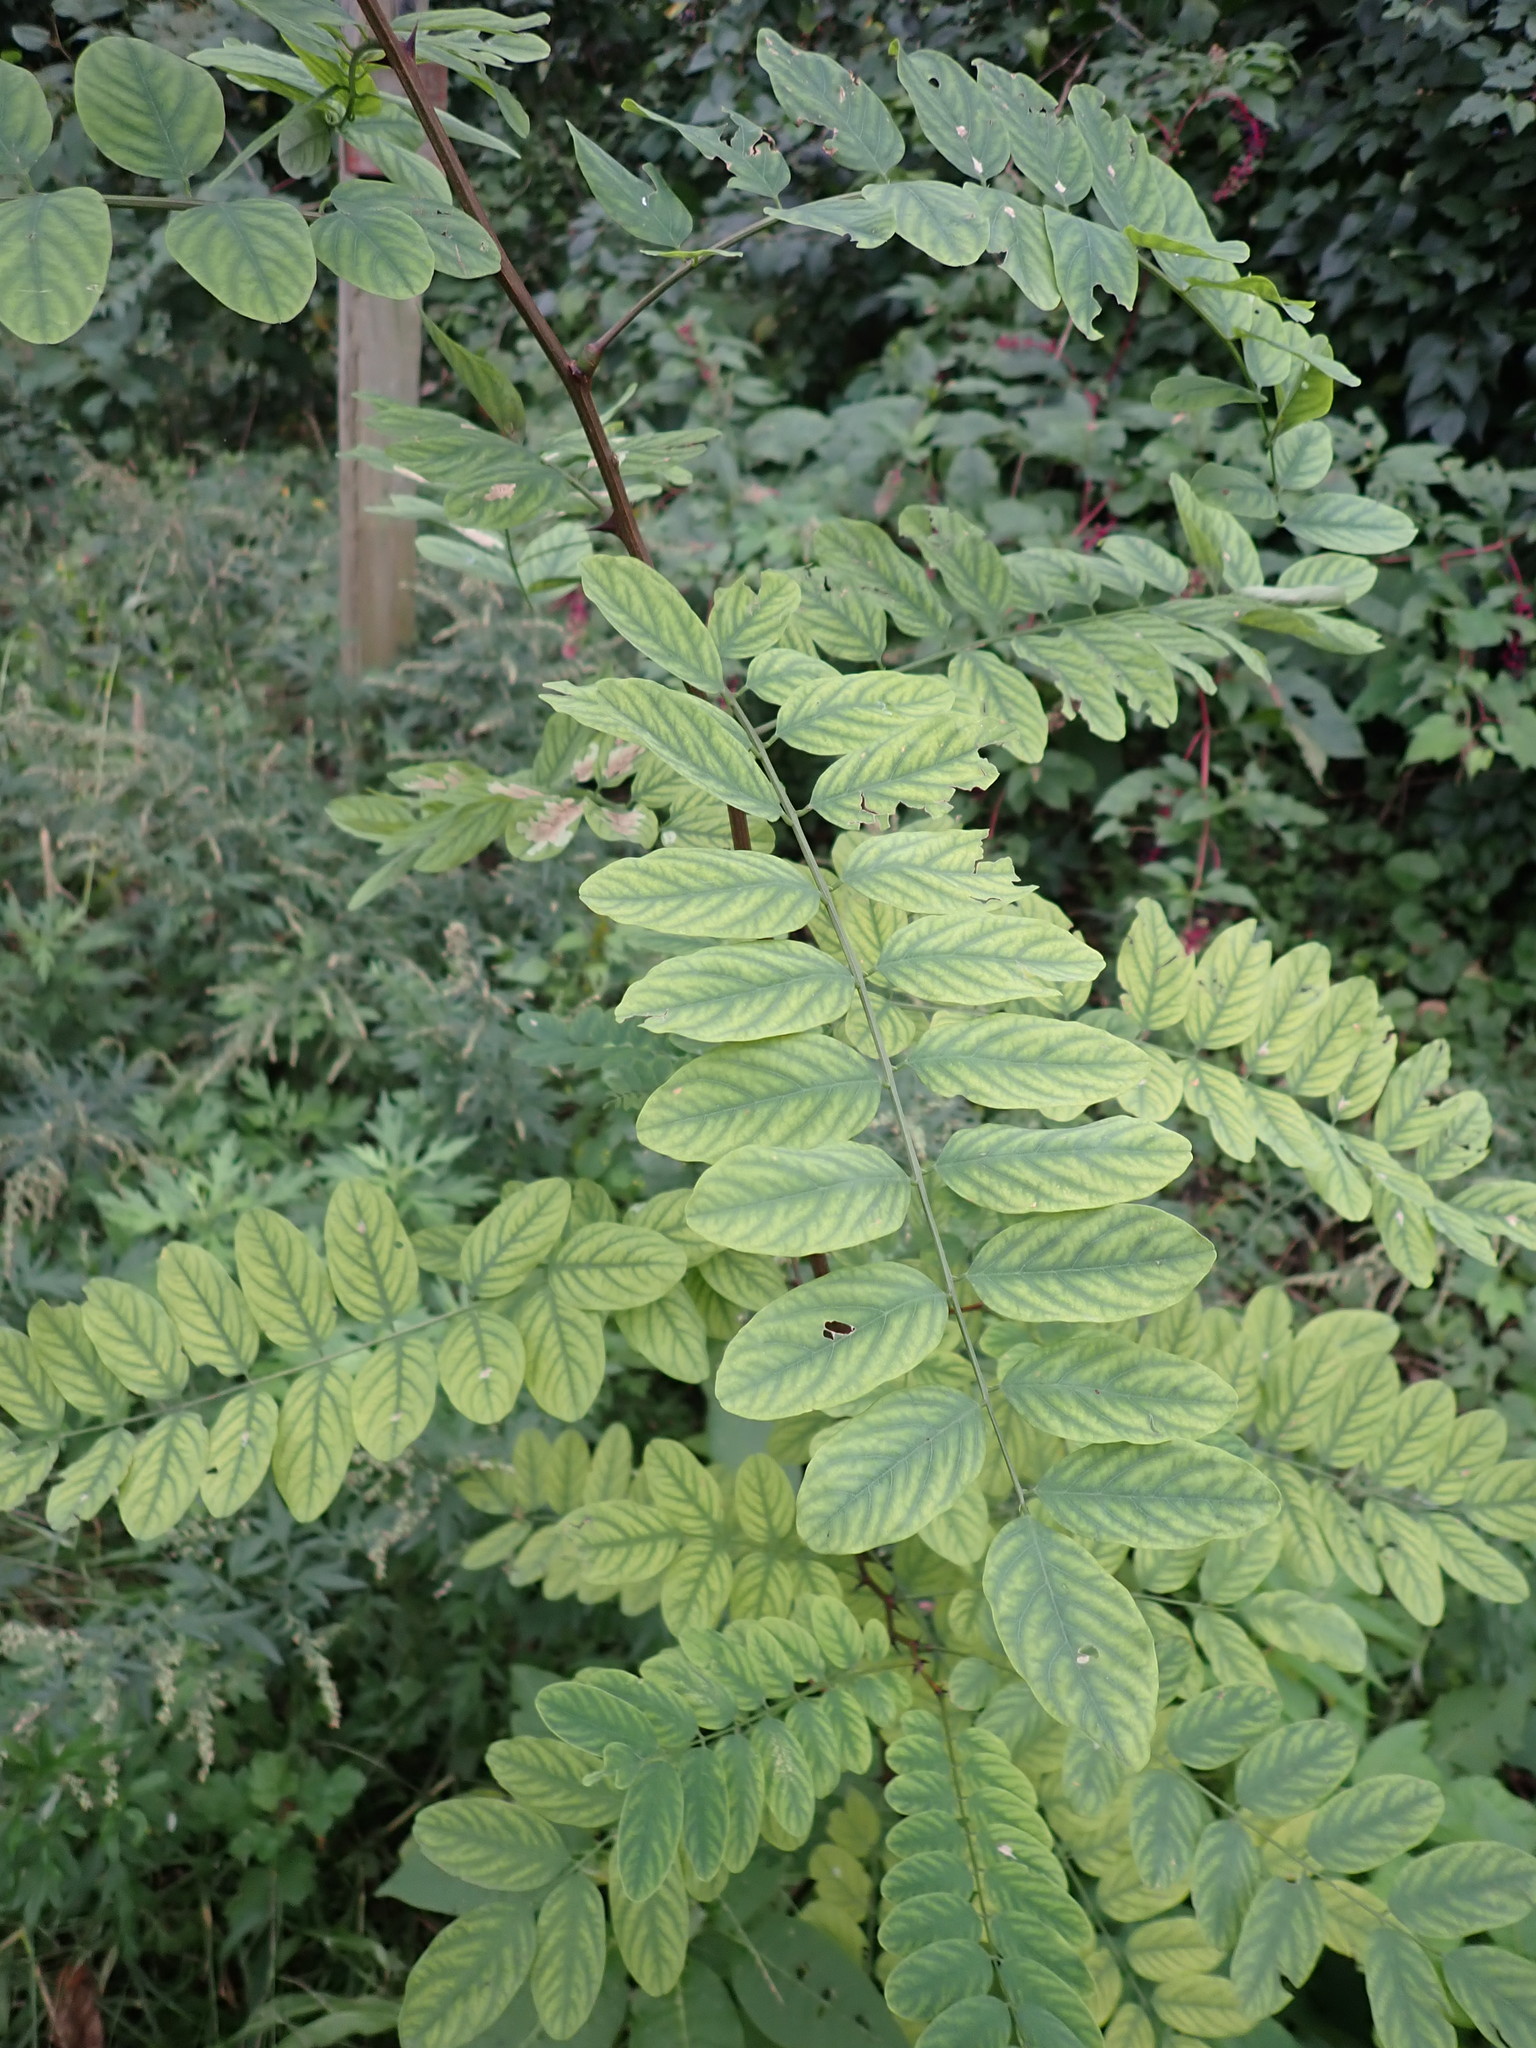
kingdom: Plantae
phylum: Tracheophyta
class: Magnoliopsida
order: Fabales
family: Fabaceae
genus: Robinia
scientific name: Robinia pseudoacacia
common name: Black locust
